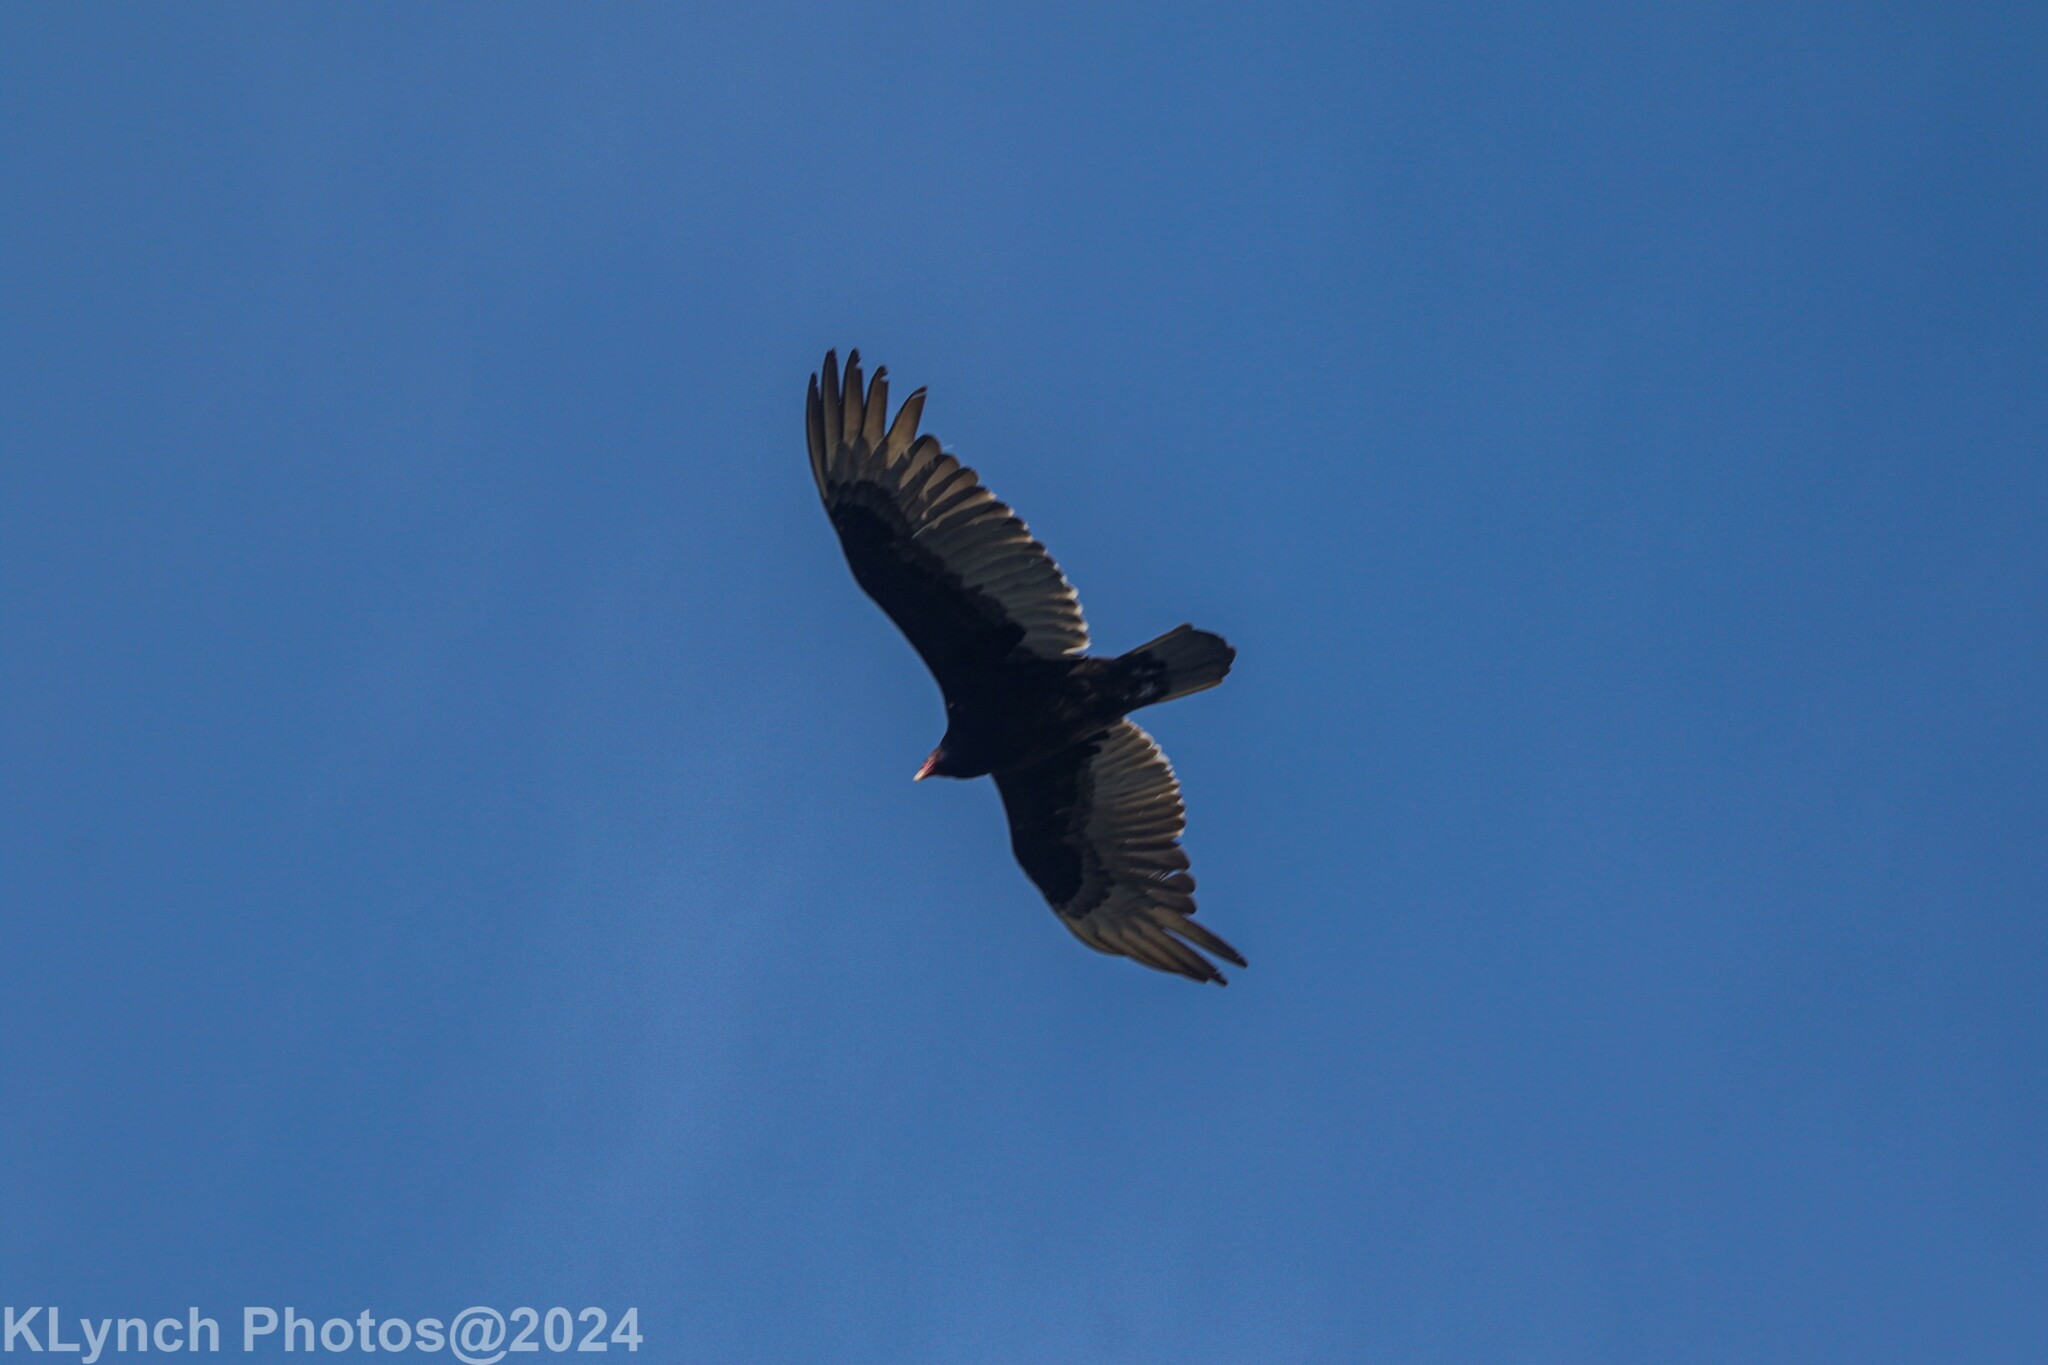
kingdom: Animalia
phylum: Chordata
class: Aves
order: Accipitriformes
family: Cathartidae
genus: Cathartes
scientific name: Cathartes aura
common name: Turkey vulture
